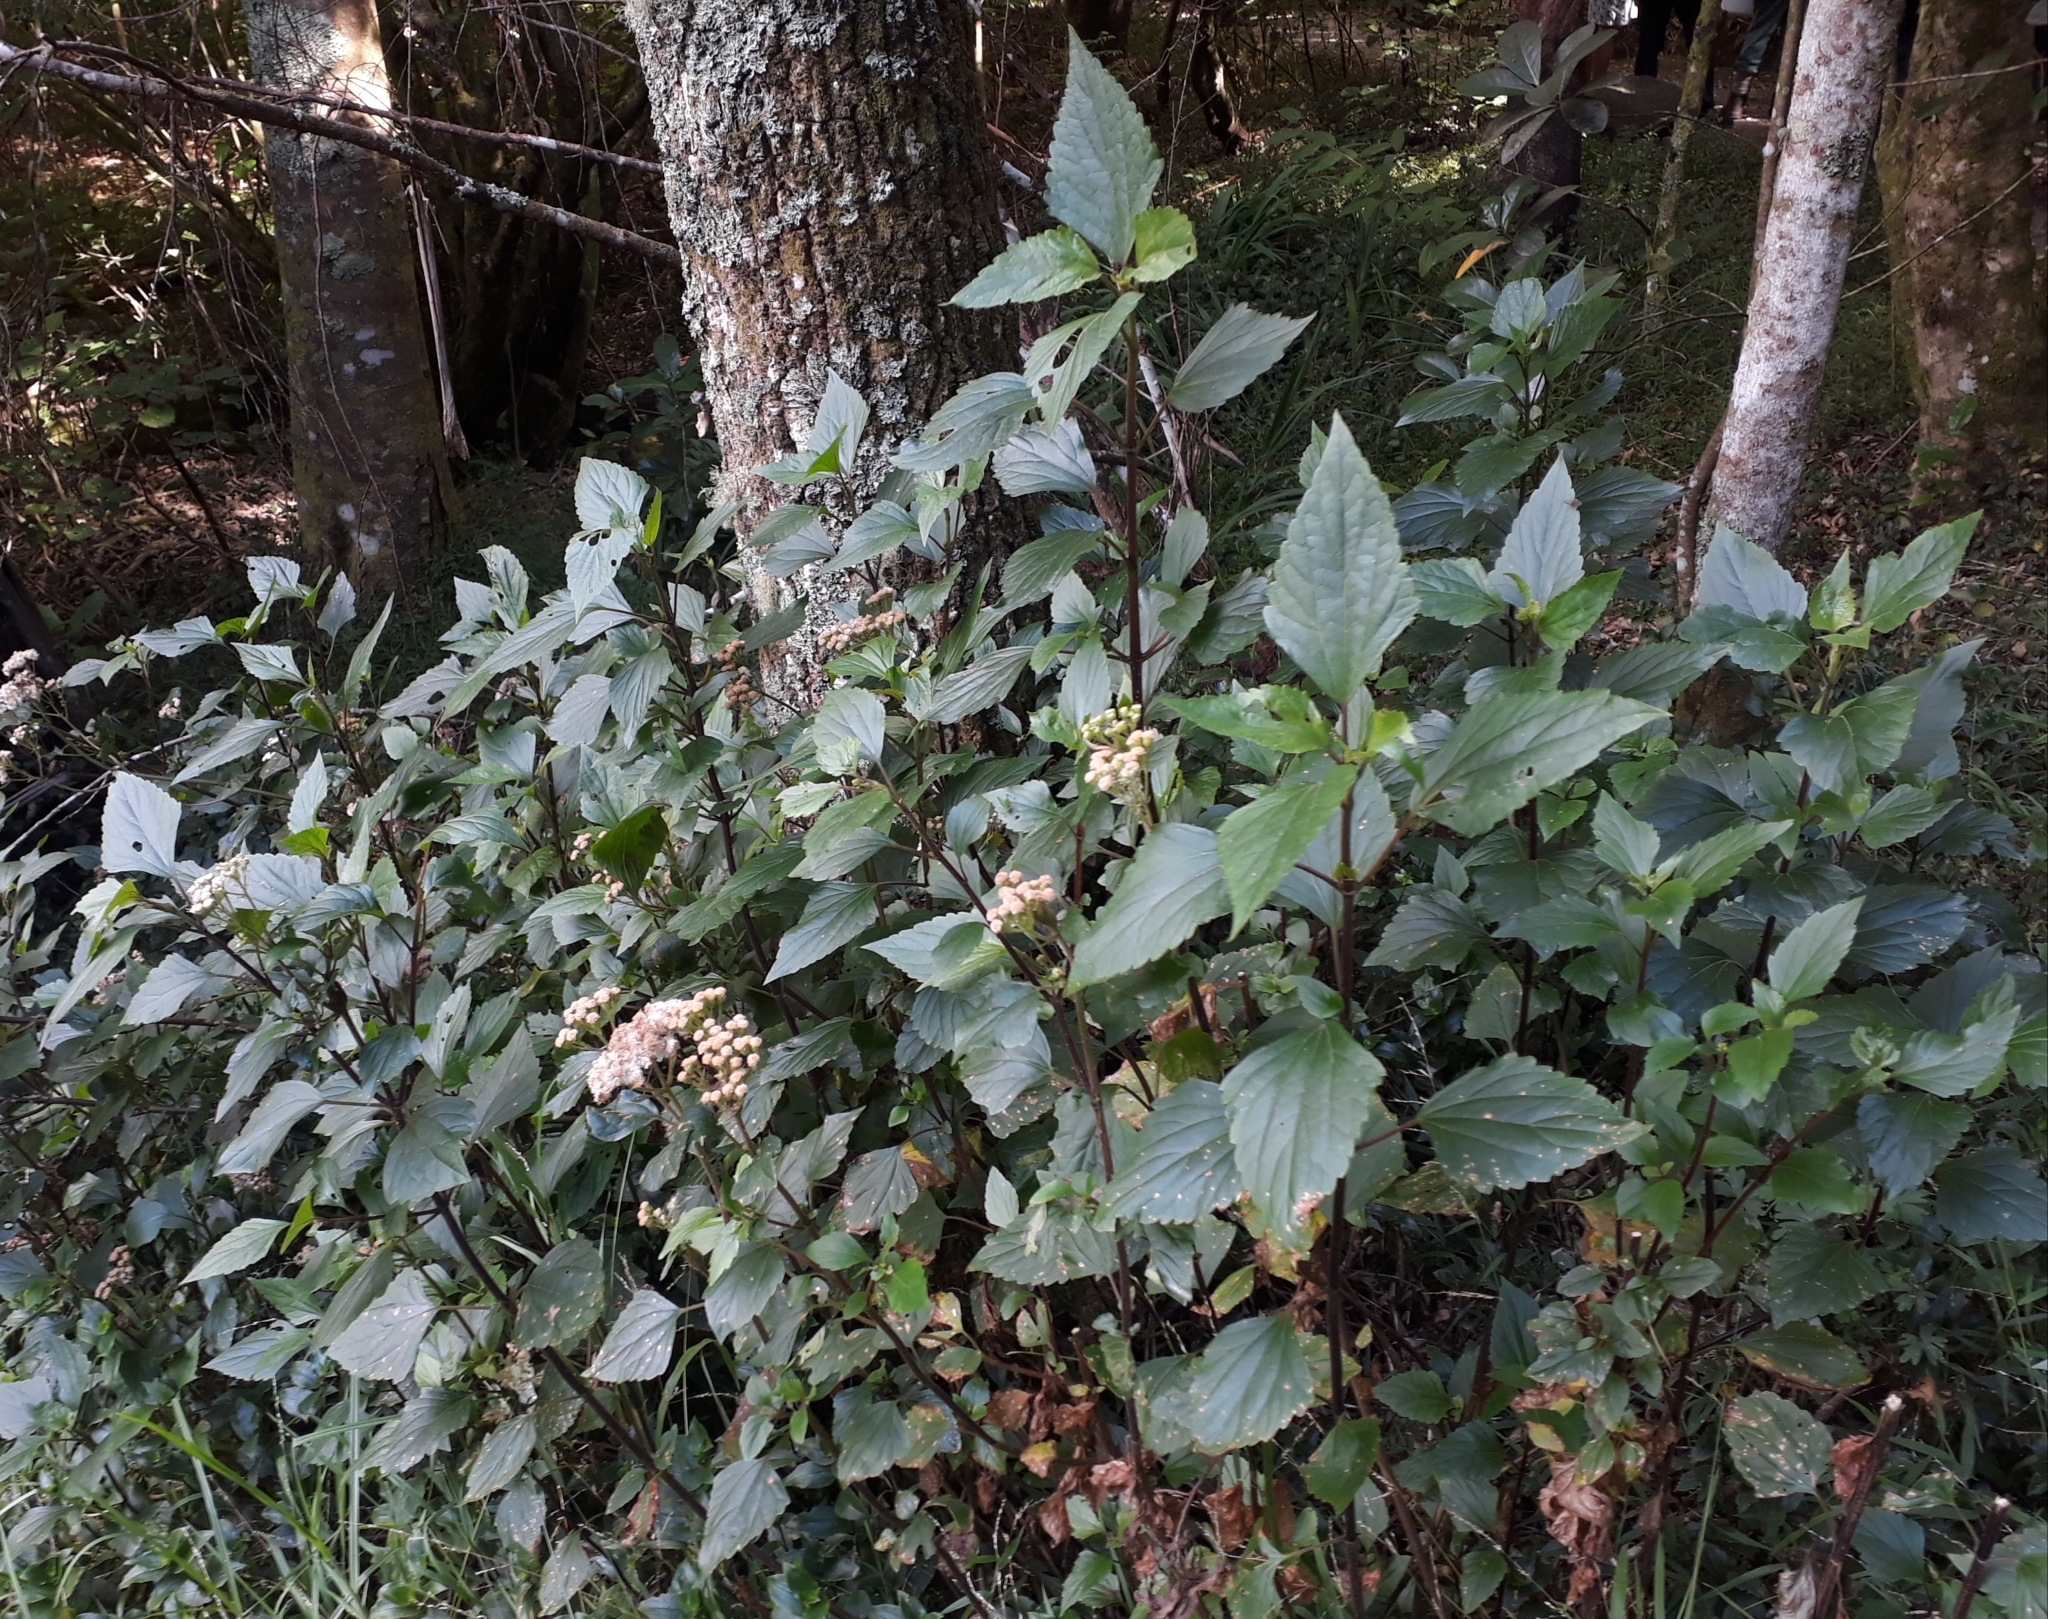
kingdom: Plantae
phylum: Tracheophyta
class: Magnoliopsida
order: Asterales
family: Asteraceae
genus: Ageratina
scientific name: Ageratina adenophora
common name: Sticky snakeroot
